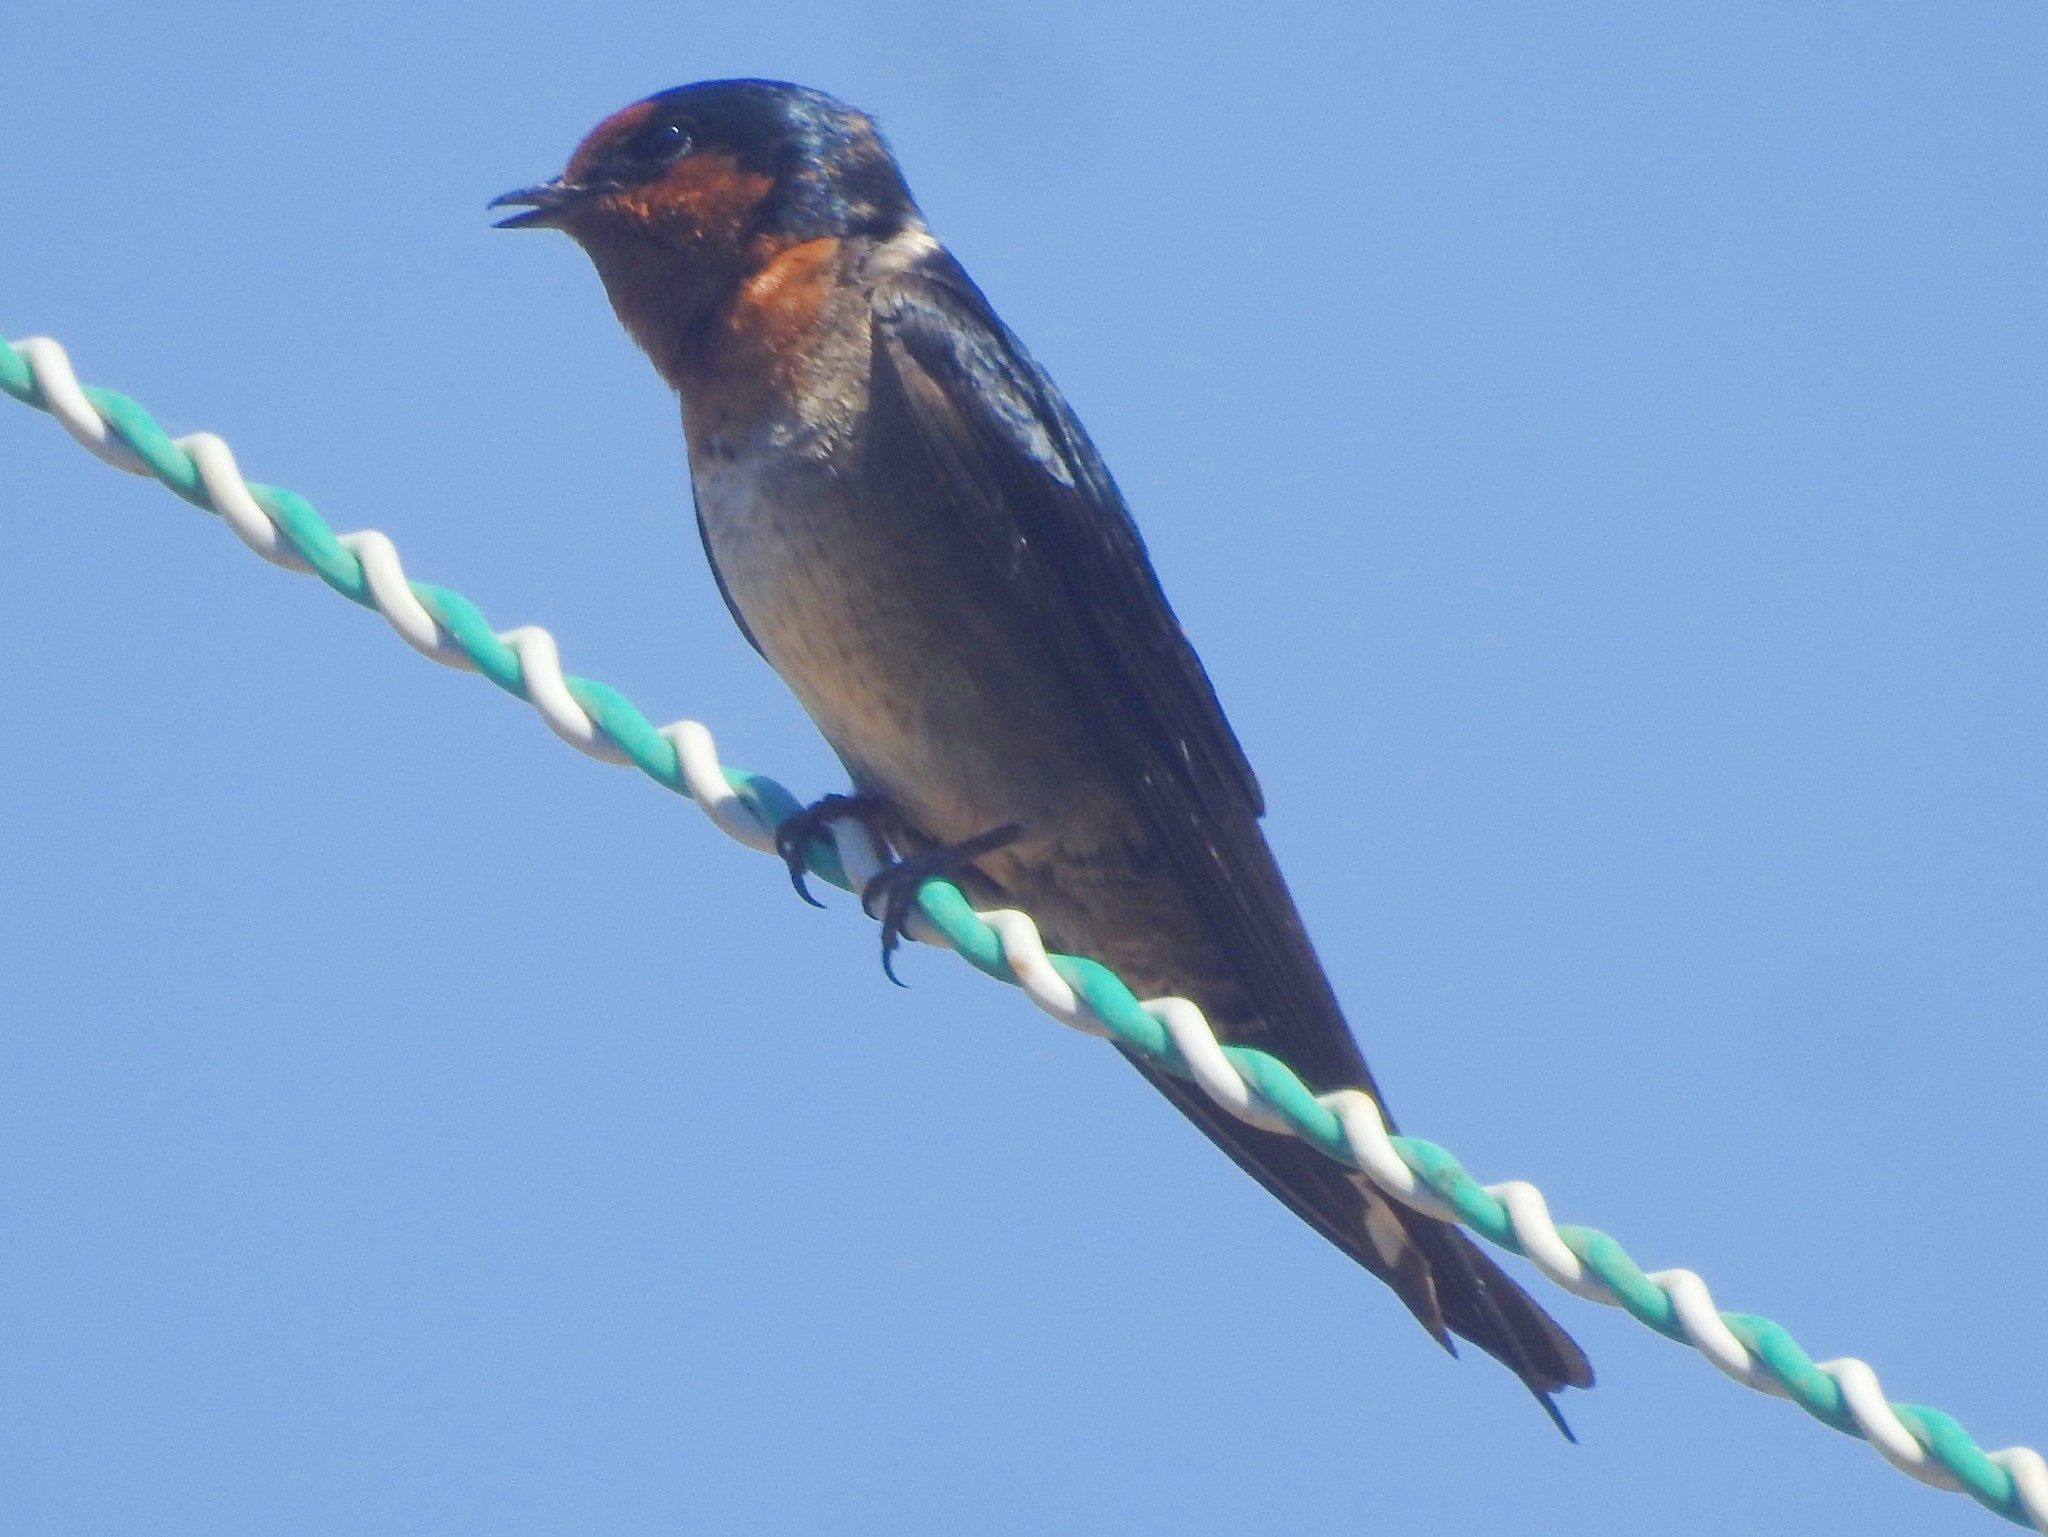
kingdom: Animalia
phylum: Chordata
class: Aves
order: Passeriformes
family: Hirundinidae
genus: Hirundo
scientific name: Hirundo domicola
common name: Hill swallow
